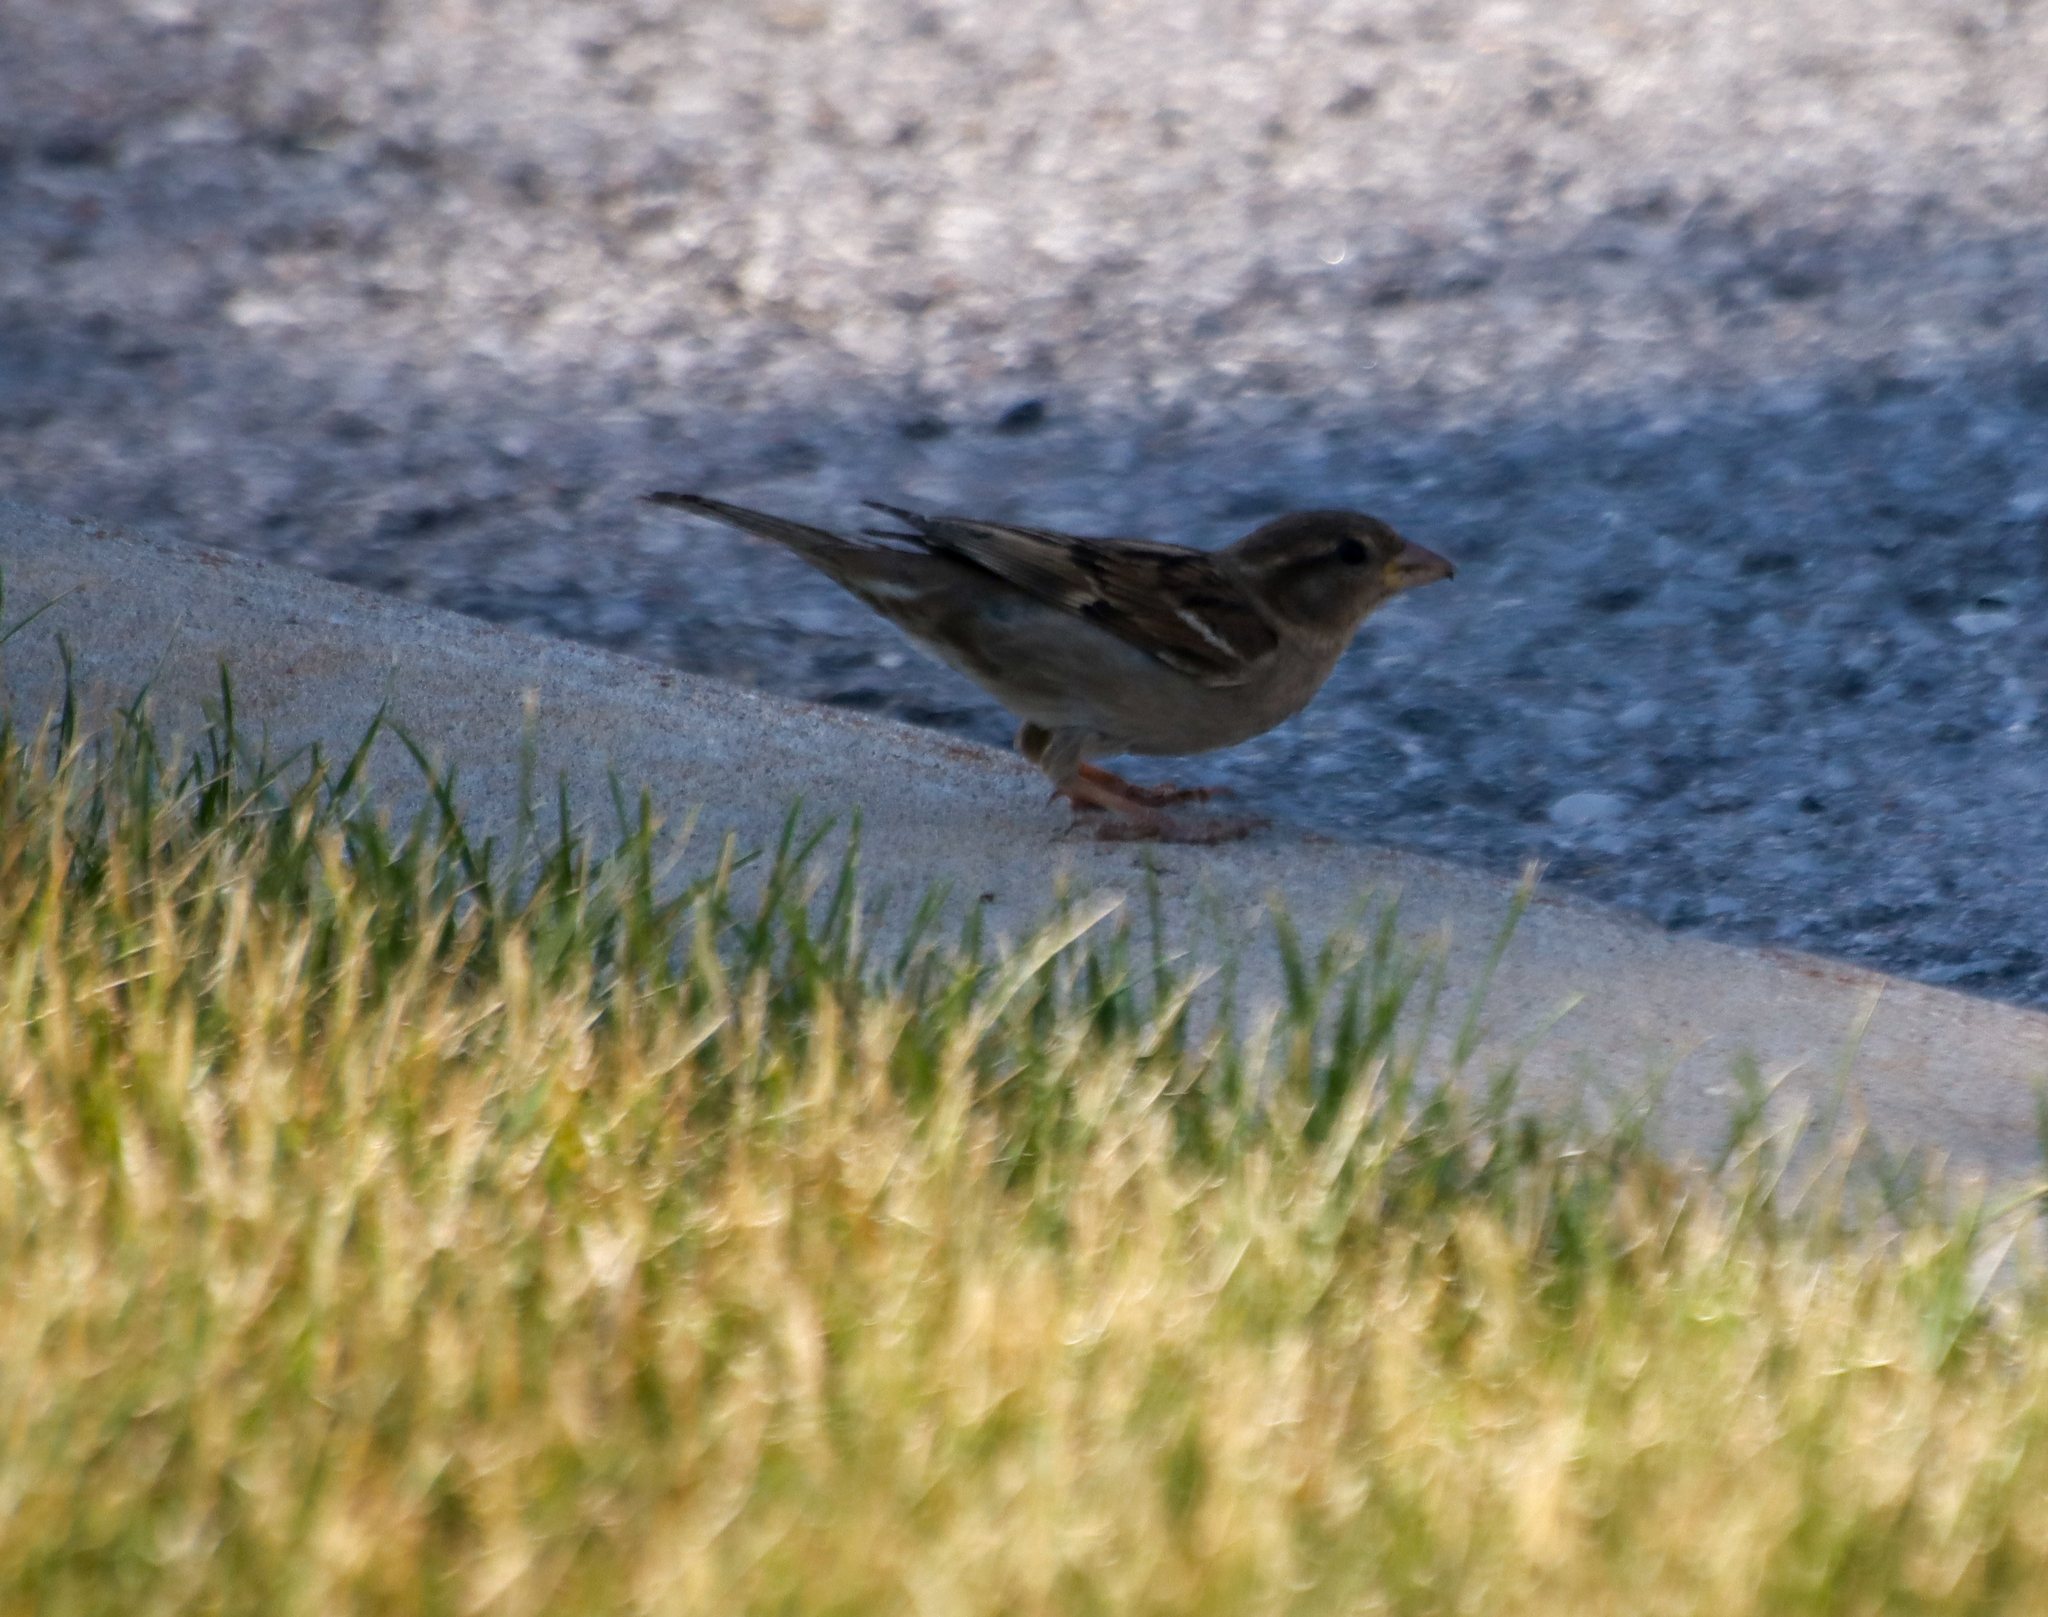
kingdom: Animalia
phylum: Chordata
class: Aves
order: Passeriformes
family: Passeridae
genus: Passer
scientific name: Passer domesticus
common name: House sparrow
